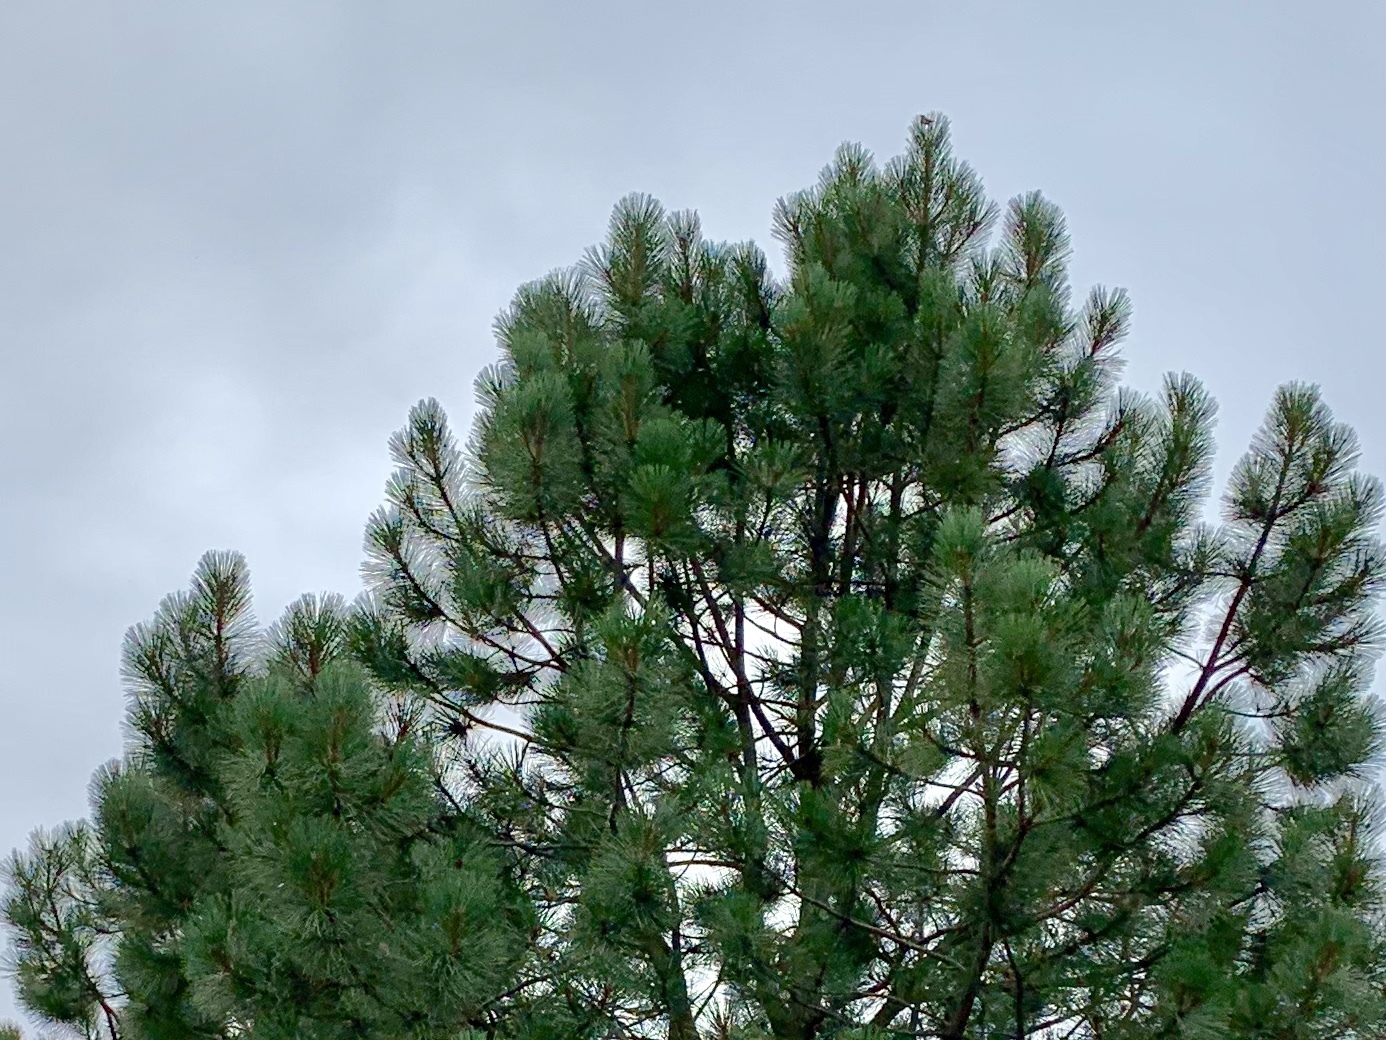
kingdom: Plantae
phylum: Tracheophyta
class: Pinopsida
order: Pinales
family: Pinaceae
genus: Pinus
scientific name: Pinus ponderosa
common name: Western yellow-pine
